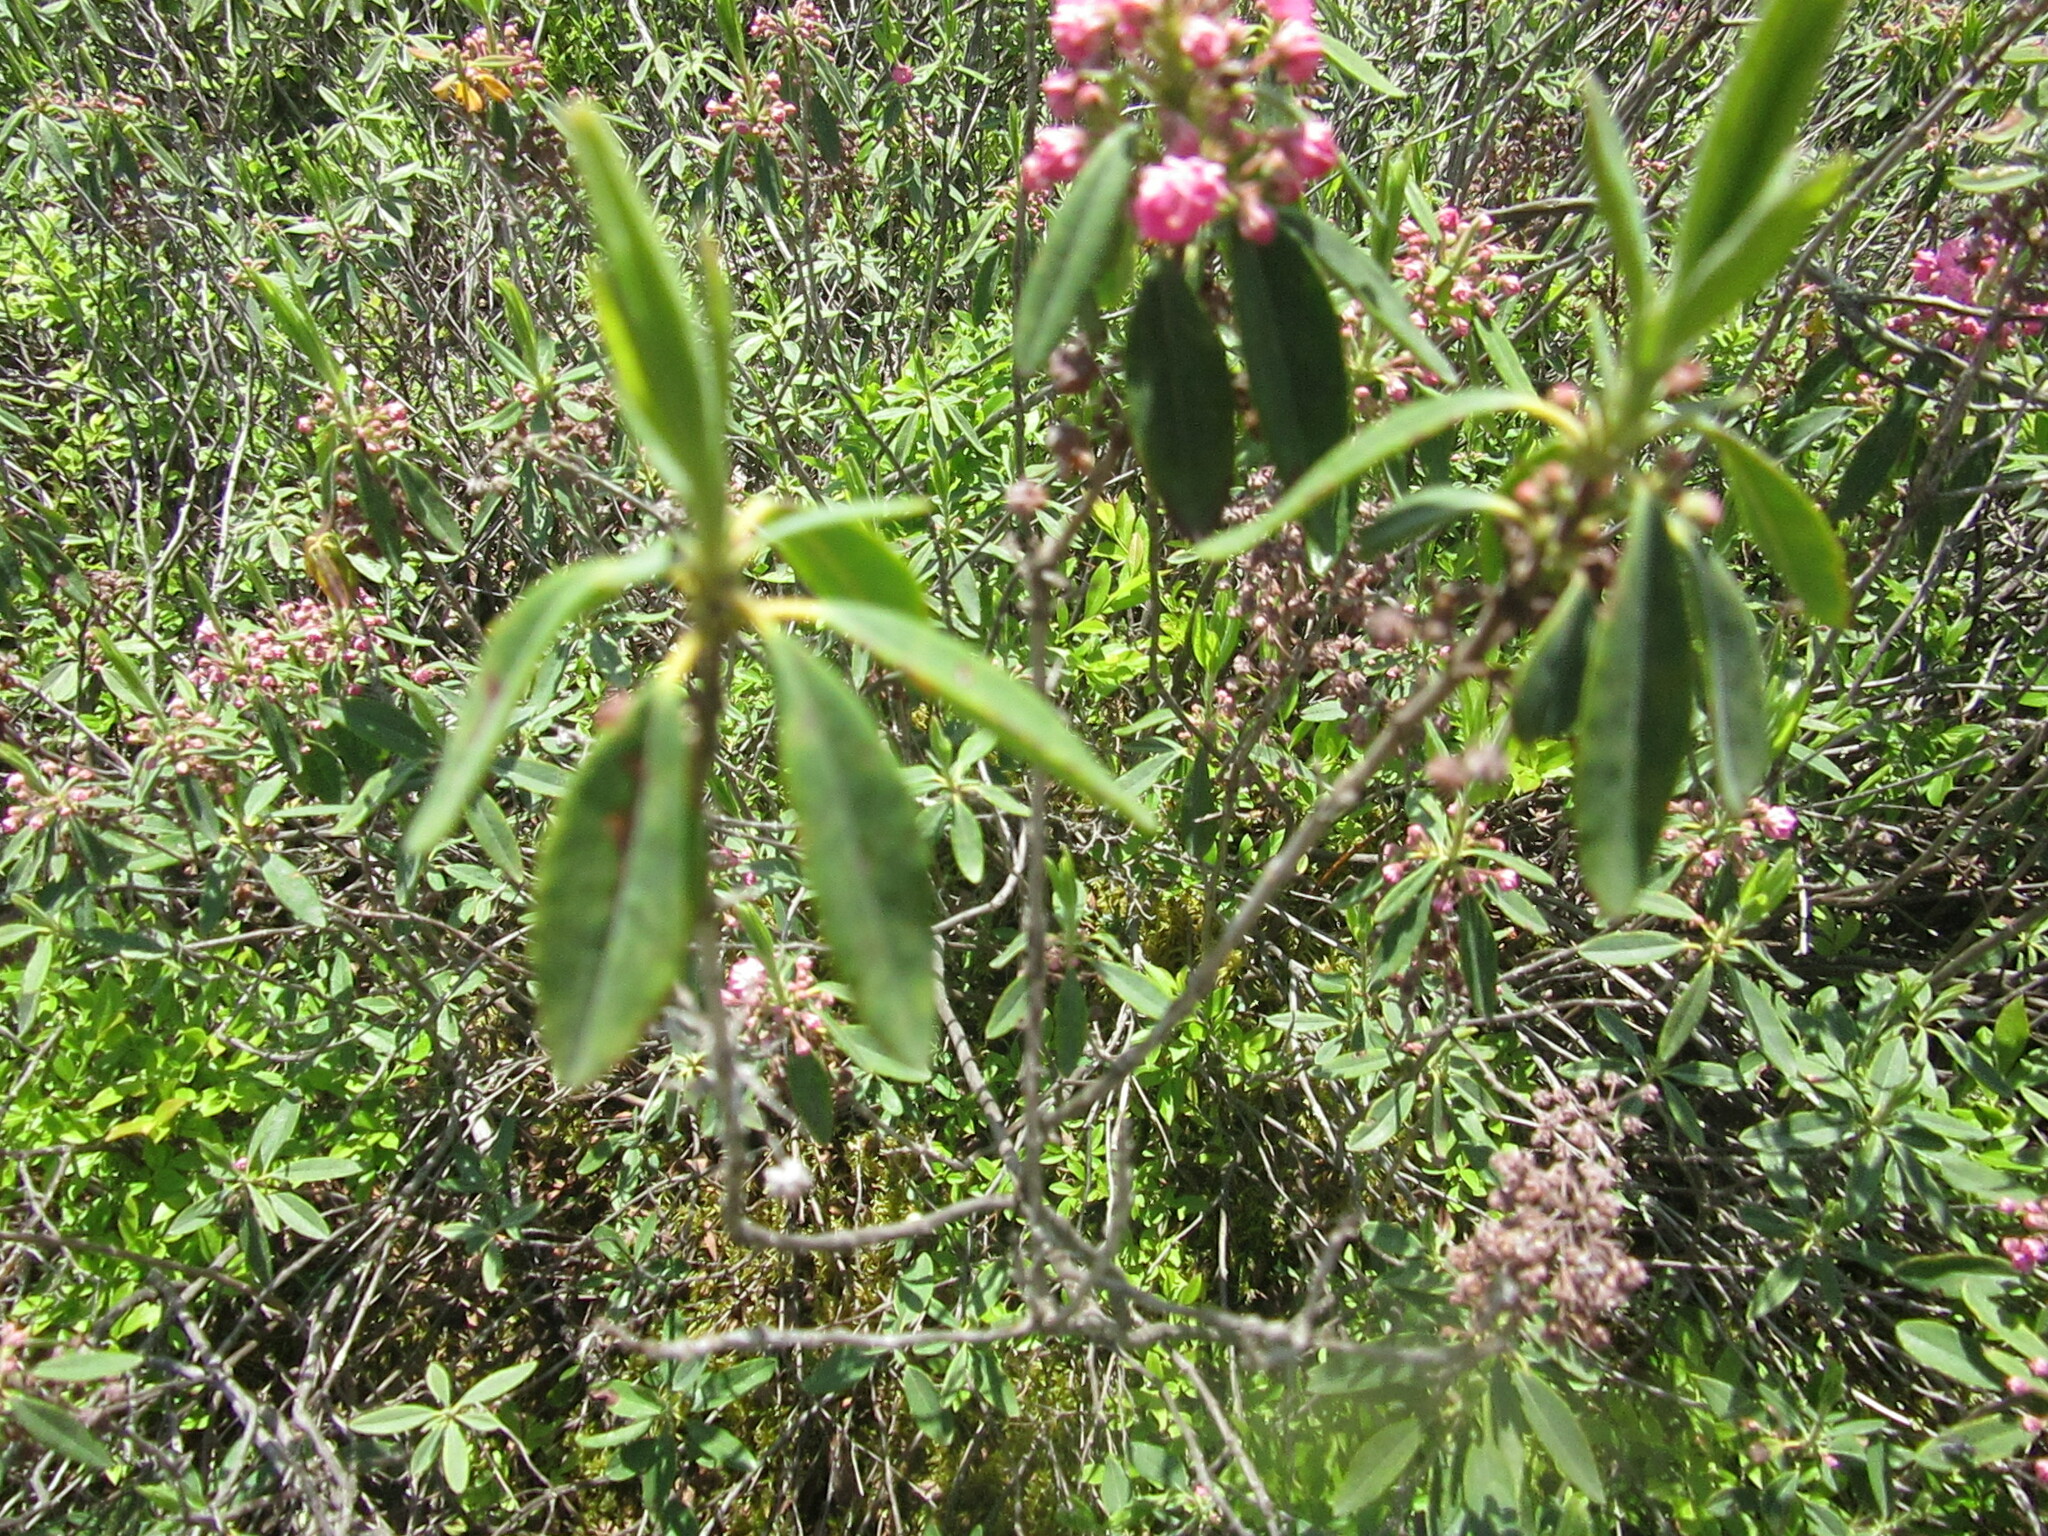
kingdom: Plantae
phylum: Tracheophyta
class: Magnoliopsida
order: Ericales
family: Ericaceae
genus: Kalmia
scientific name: Kalmia angustifolia
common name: Sheep-laurel
